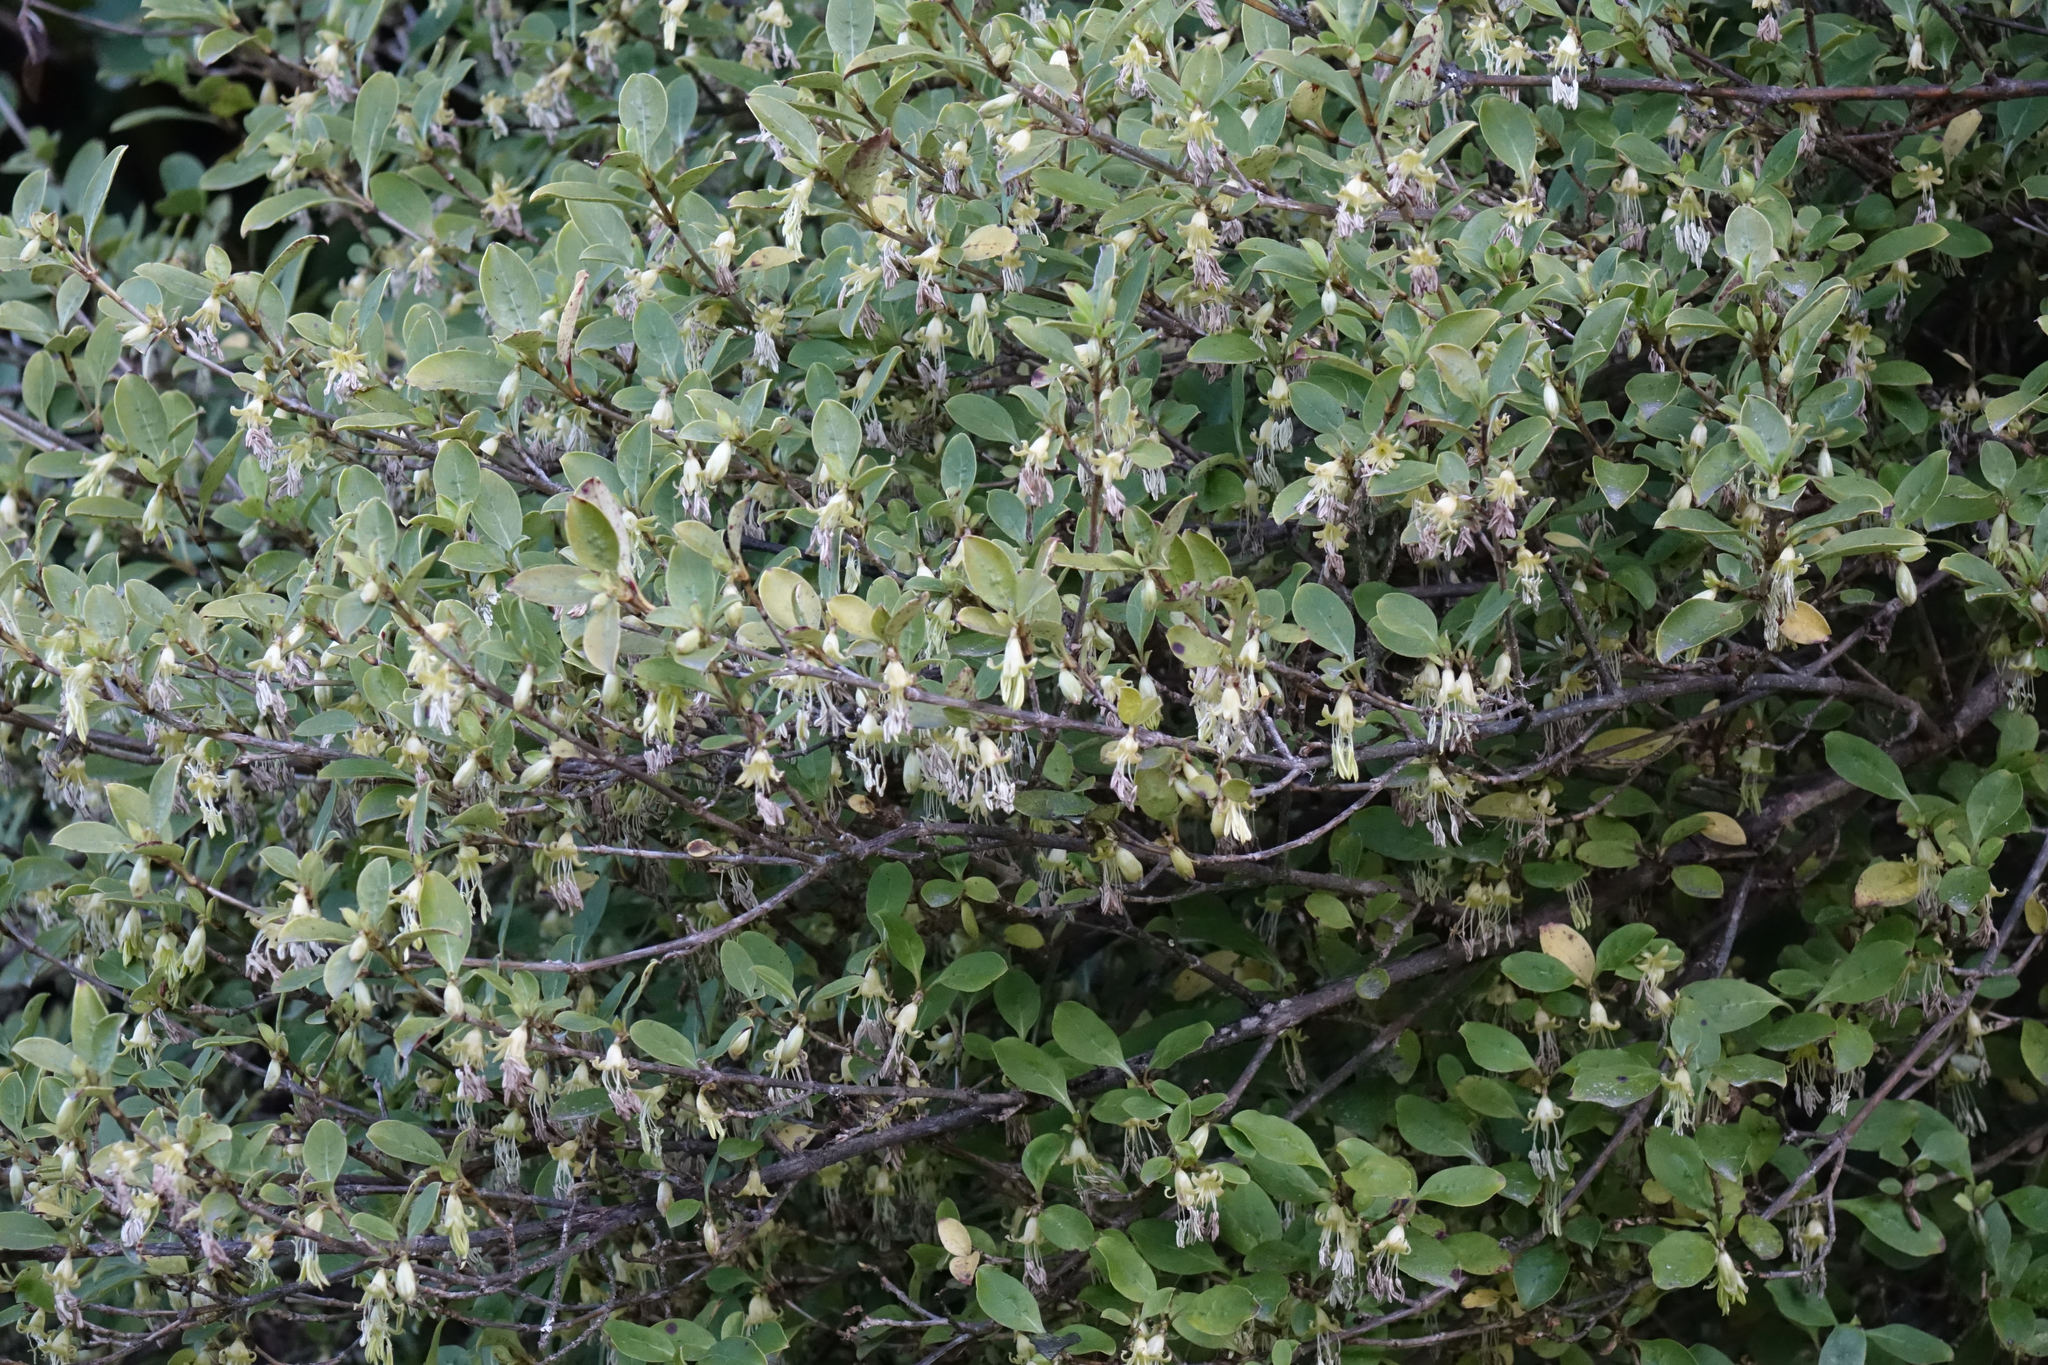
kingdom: Plantae
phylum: Tracheophyta
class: Magnoliopsida
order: Gentianales
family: Rubiaceae
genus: Coprosma
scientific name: Coprosma foetidissima
